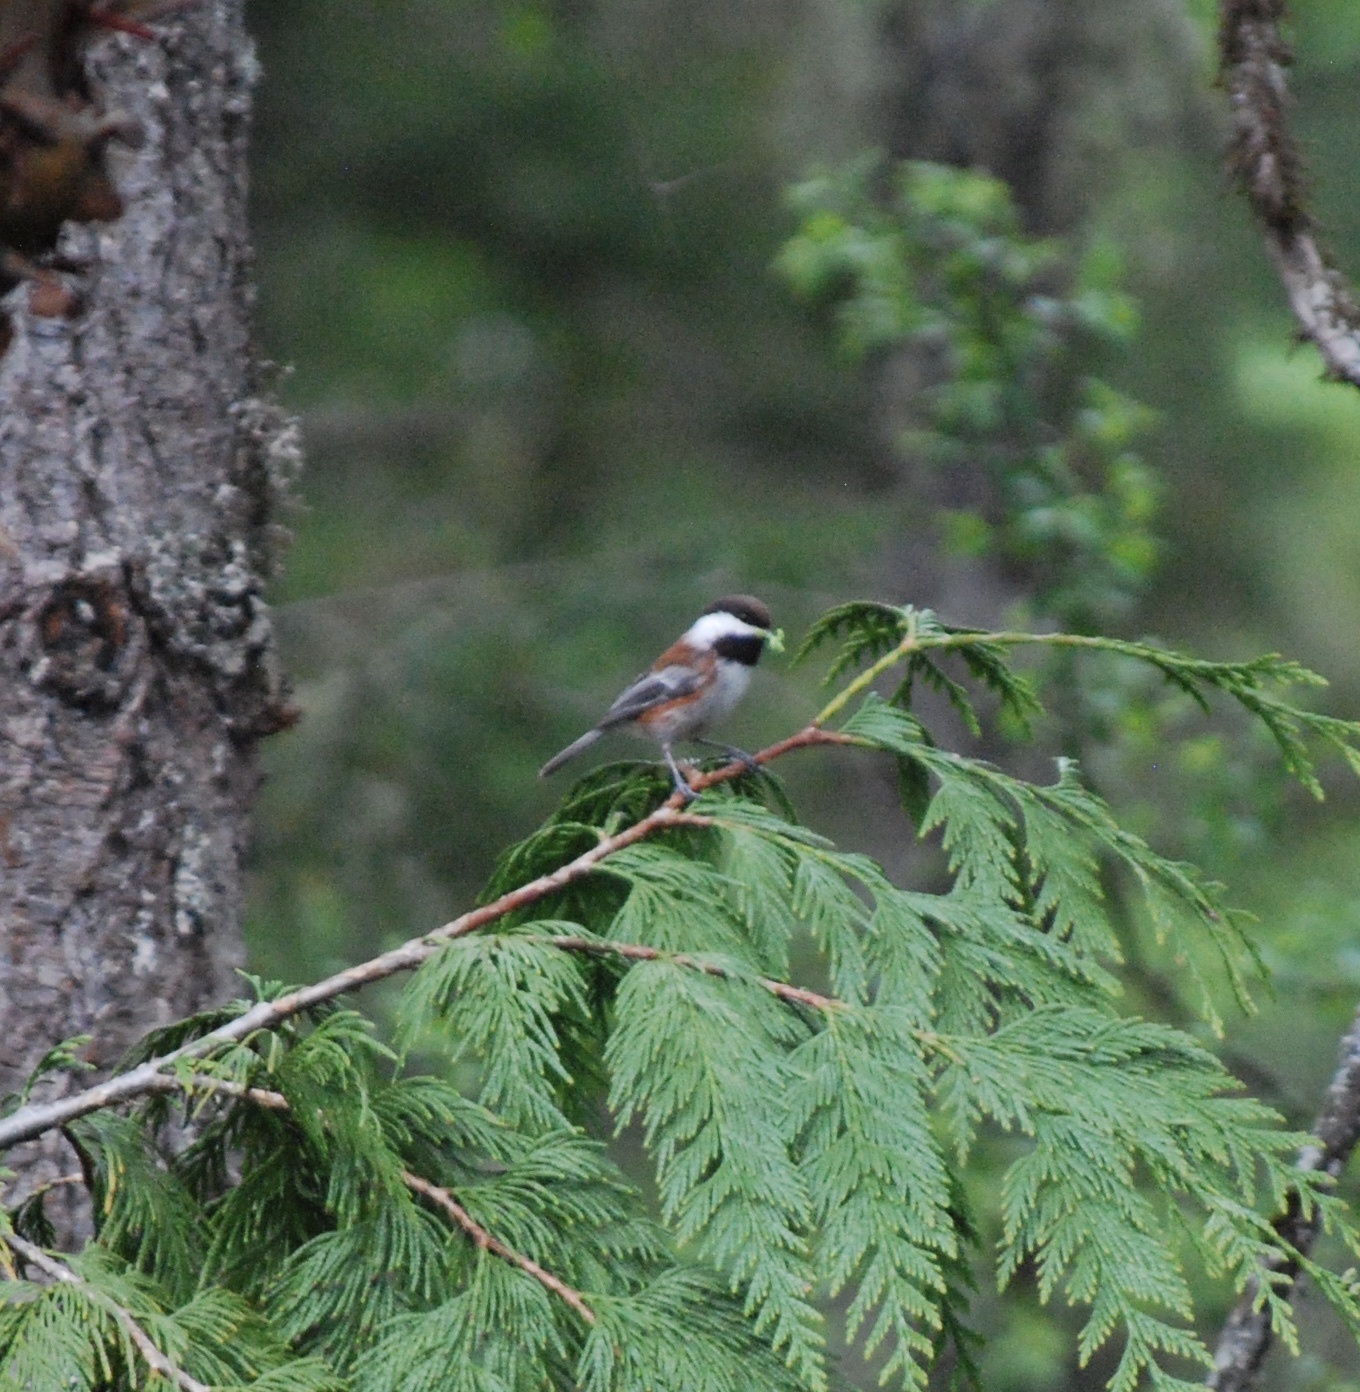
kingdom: Animalia
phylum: Chordata
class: Aves
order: Passeriformes
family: Paridae
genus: Poecile
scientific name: Poecile rufescens
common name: Chestnut-backed chickadee
